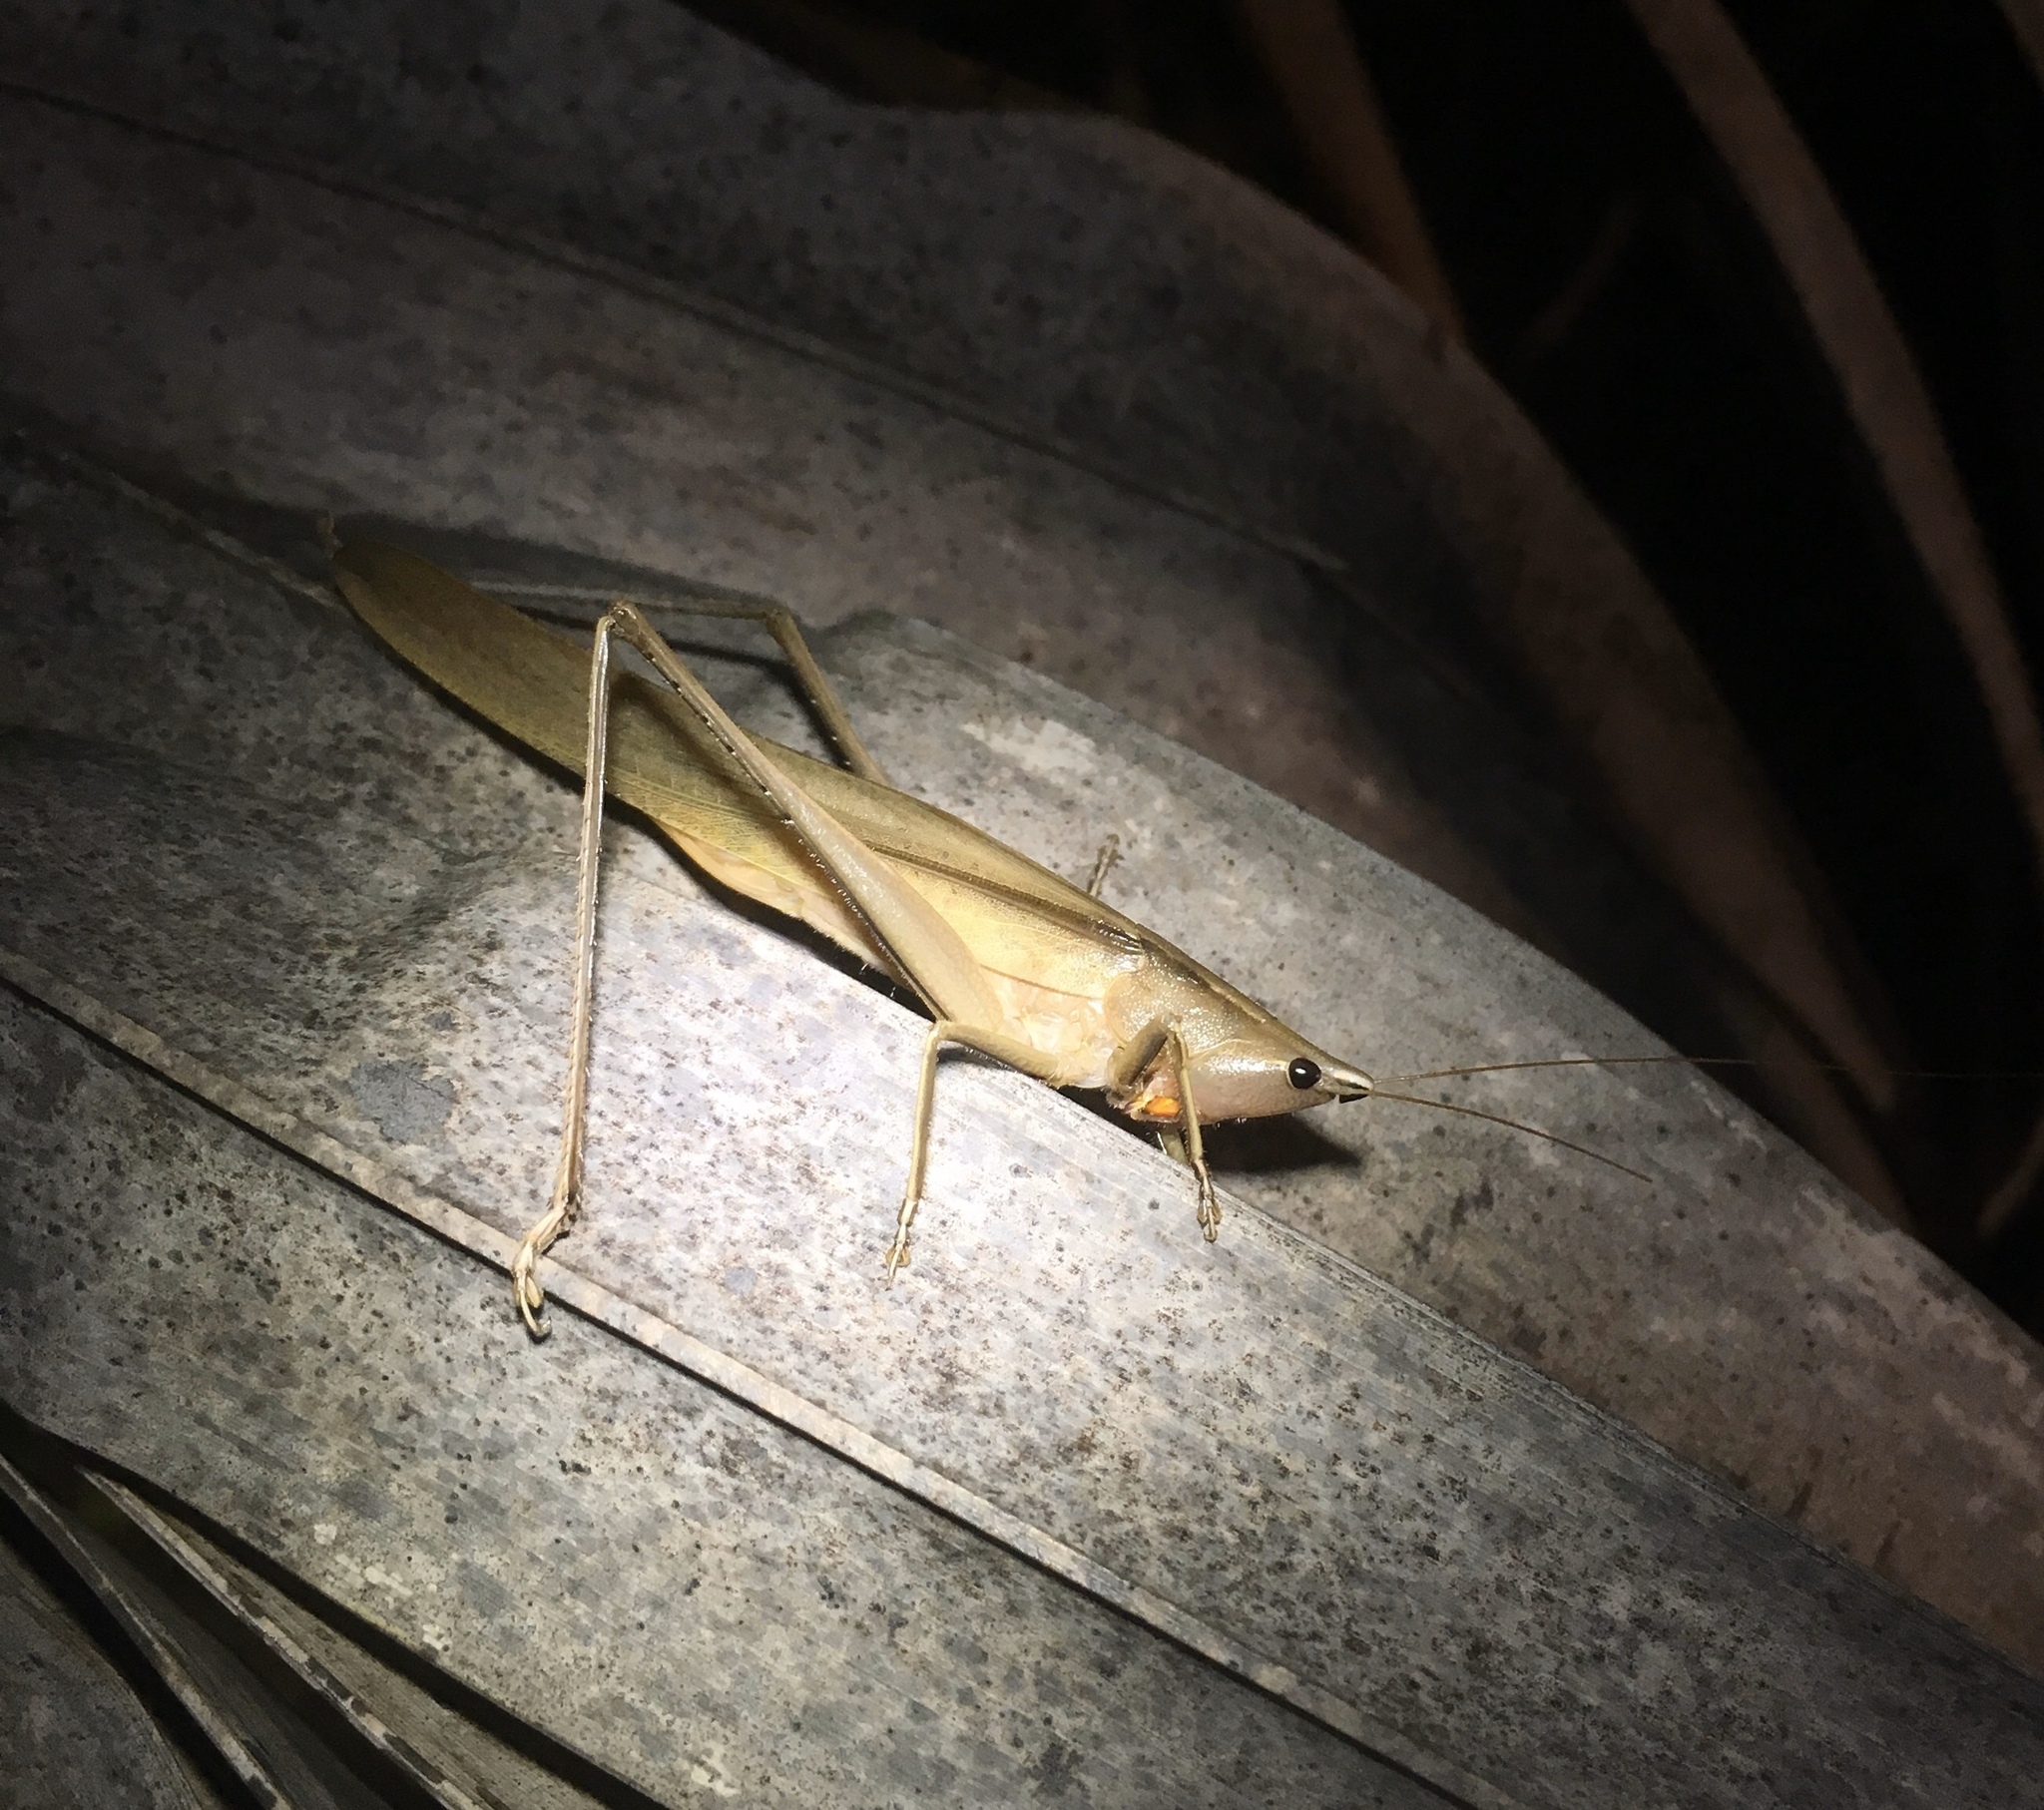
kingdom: Animalia
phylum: Arthropoda
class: Insecta
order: Orthoptera
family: Tettigoniidae
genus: Neoconocephalus
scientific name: Neoconocephalus triops
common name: Broad-tipped conehead
